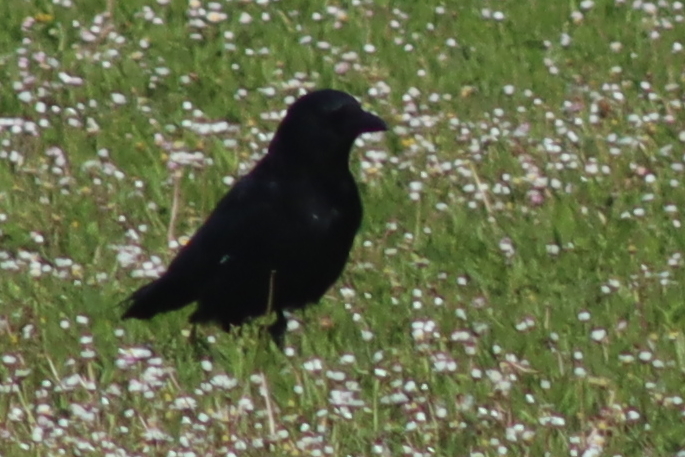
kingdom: Animalia
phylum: Chordata
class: Aves
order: Passeriformes
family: Corvidae
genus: Corvus
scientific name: Corvus corone
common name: Carrion crow
